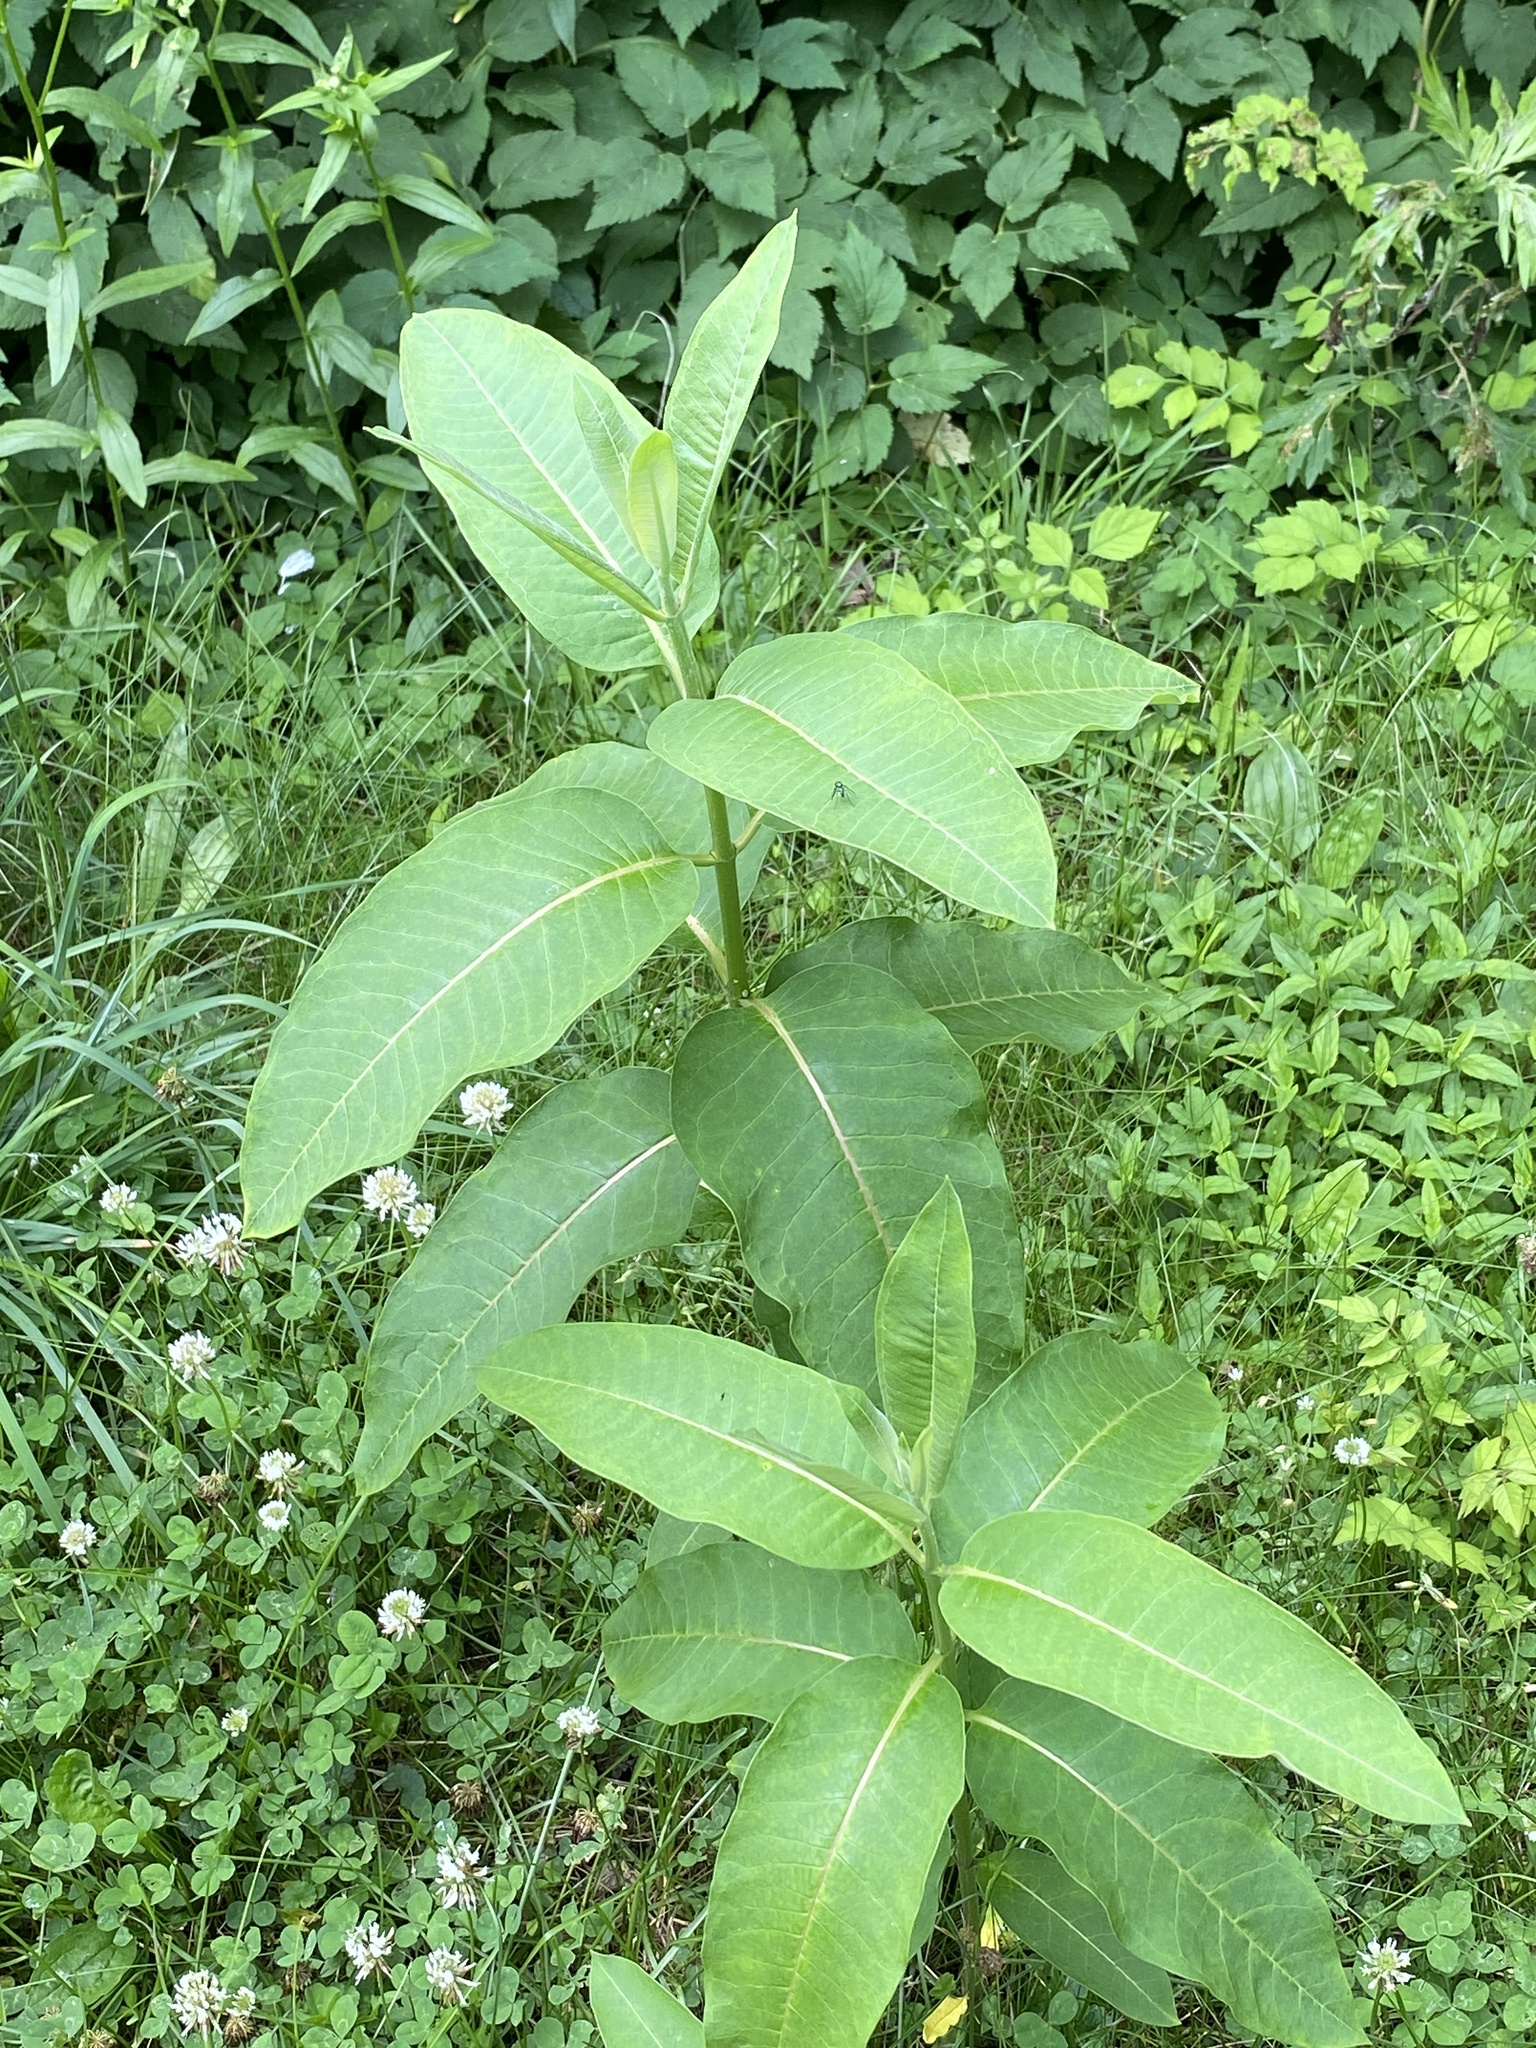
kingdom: Plantae
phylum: Tracheophyta
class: Magnoliopsida
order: Gentianales
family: Apocynaceae
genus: Asclepias
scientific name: Asclepias syriaca
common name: Common milkweed
